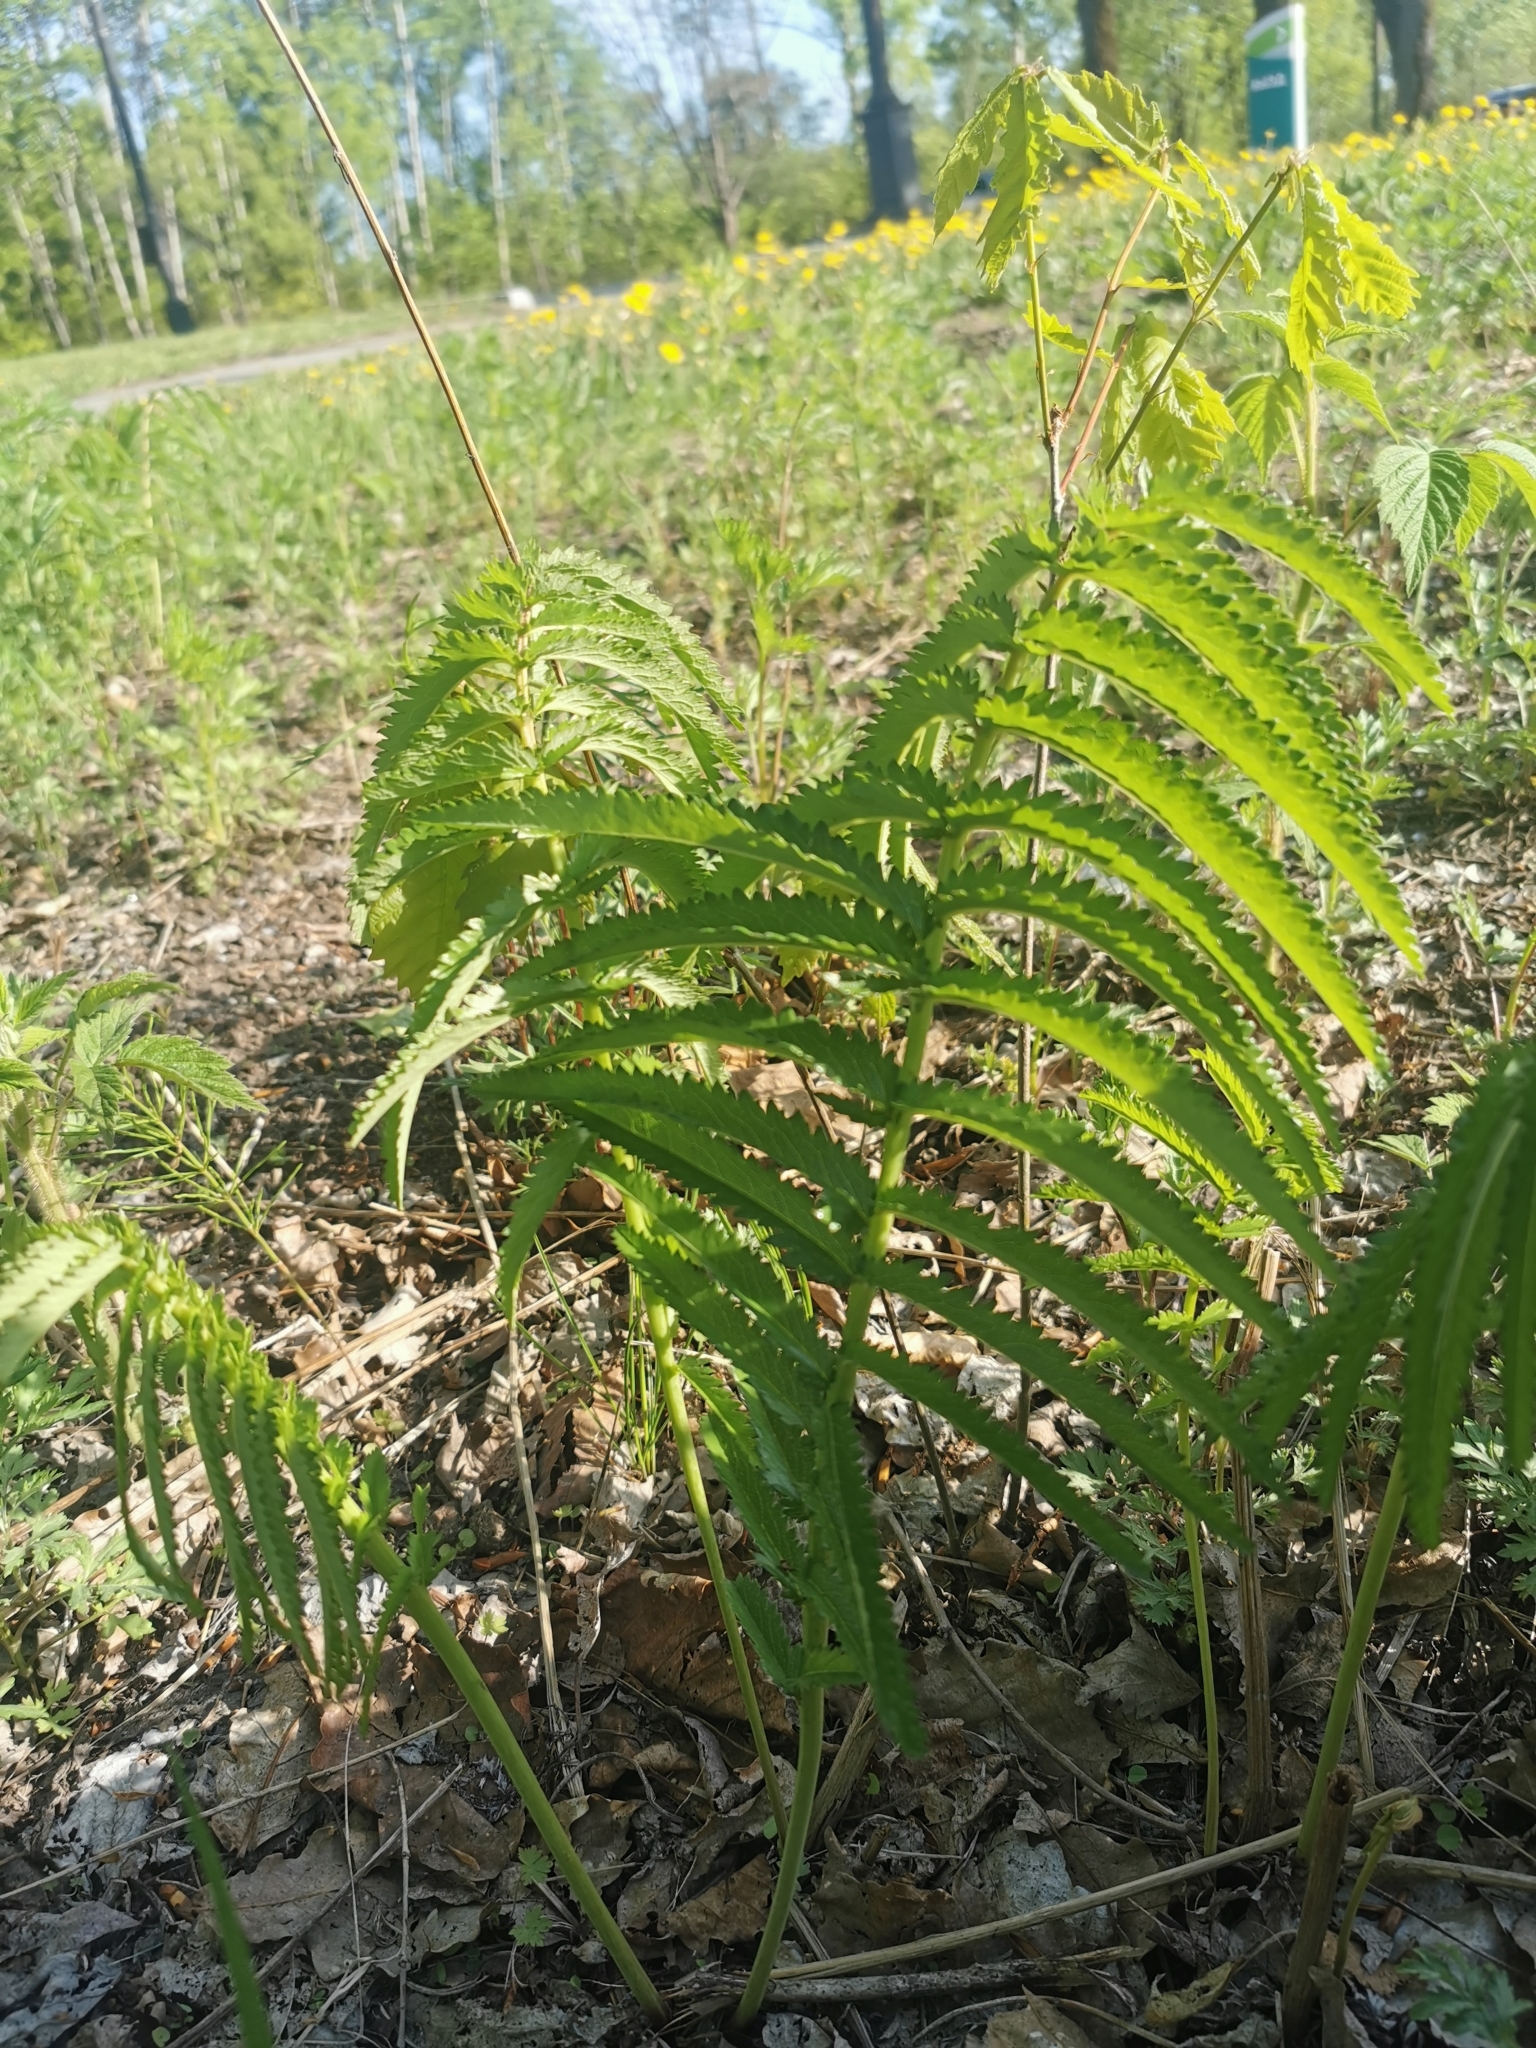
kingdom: Plantae
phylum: Tracheophyta
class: Magnoliopsida
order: Rosales
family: Rosaceae
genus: Poterium
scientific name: Poterium tenuifolium
